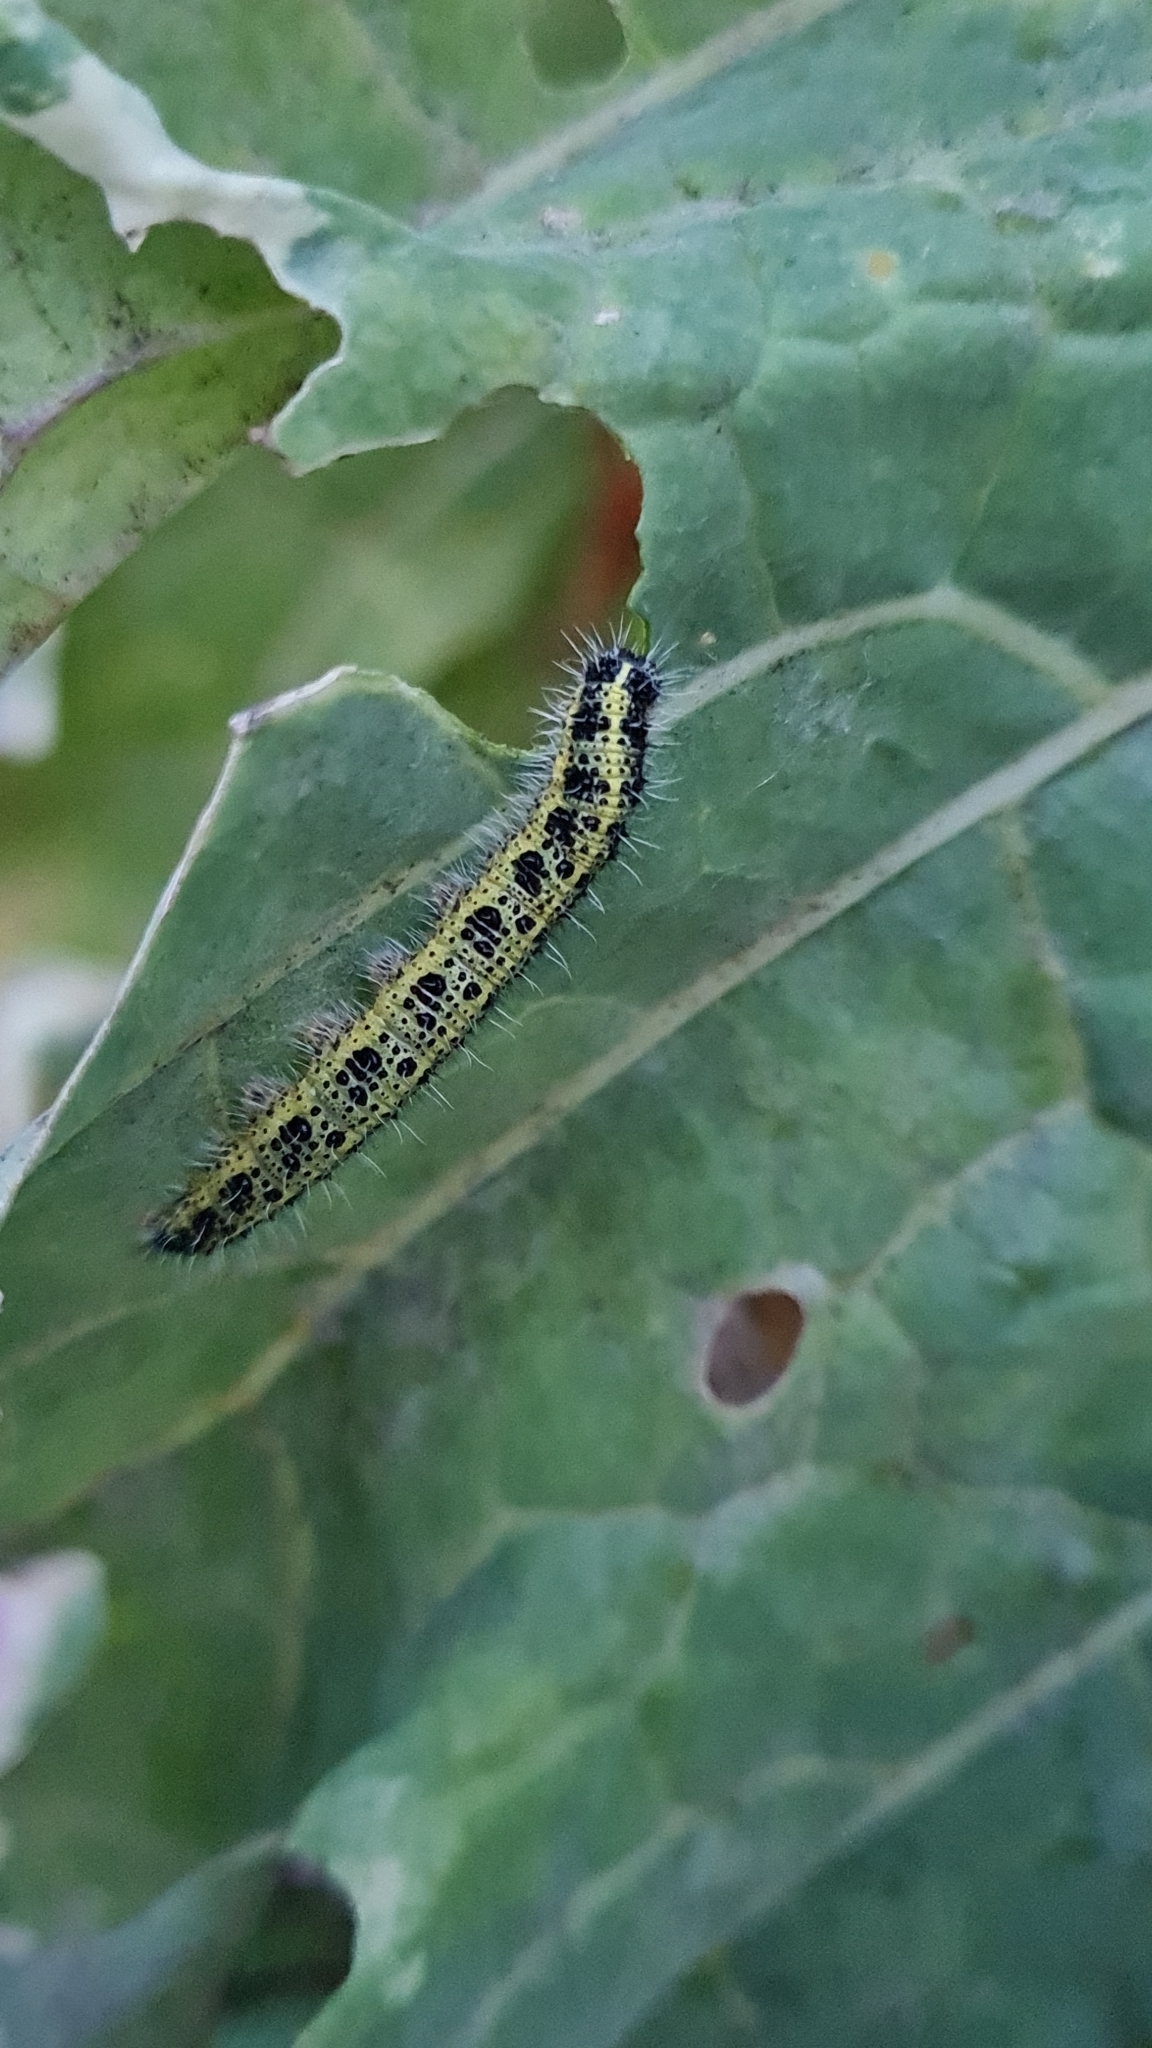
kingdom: Animalia
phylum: Arthropoda
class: Insecta
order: Lepidoptera
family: Pieridae
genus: Pieris
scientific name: Pieris brassicae
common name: Large white
